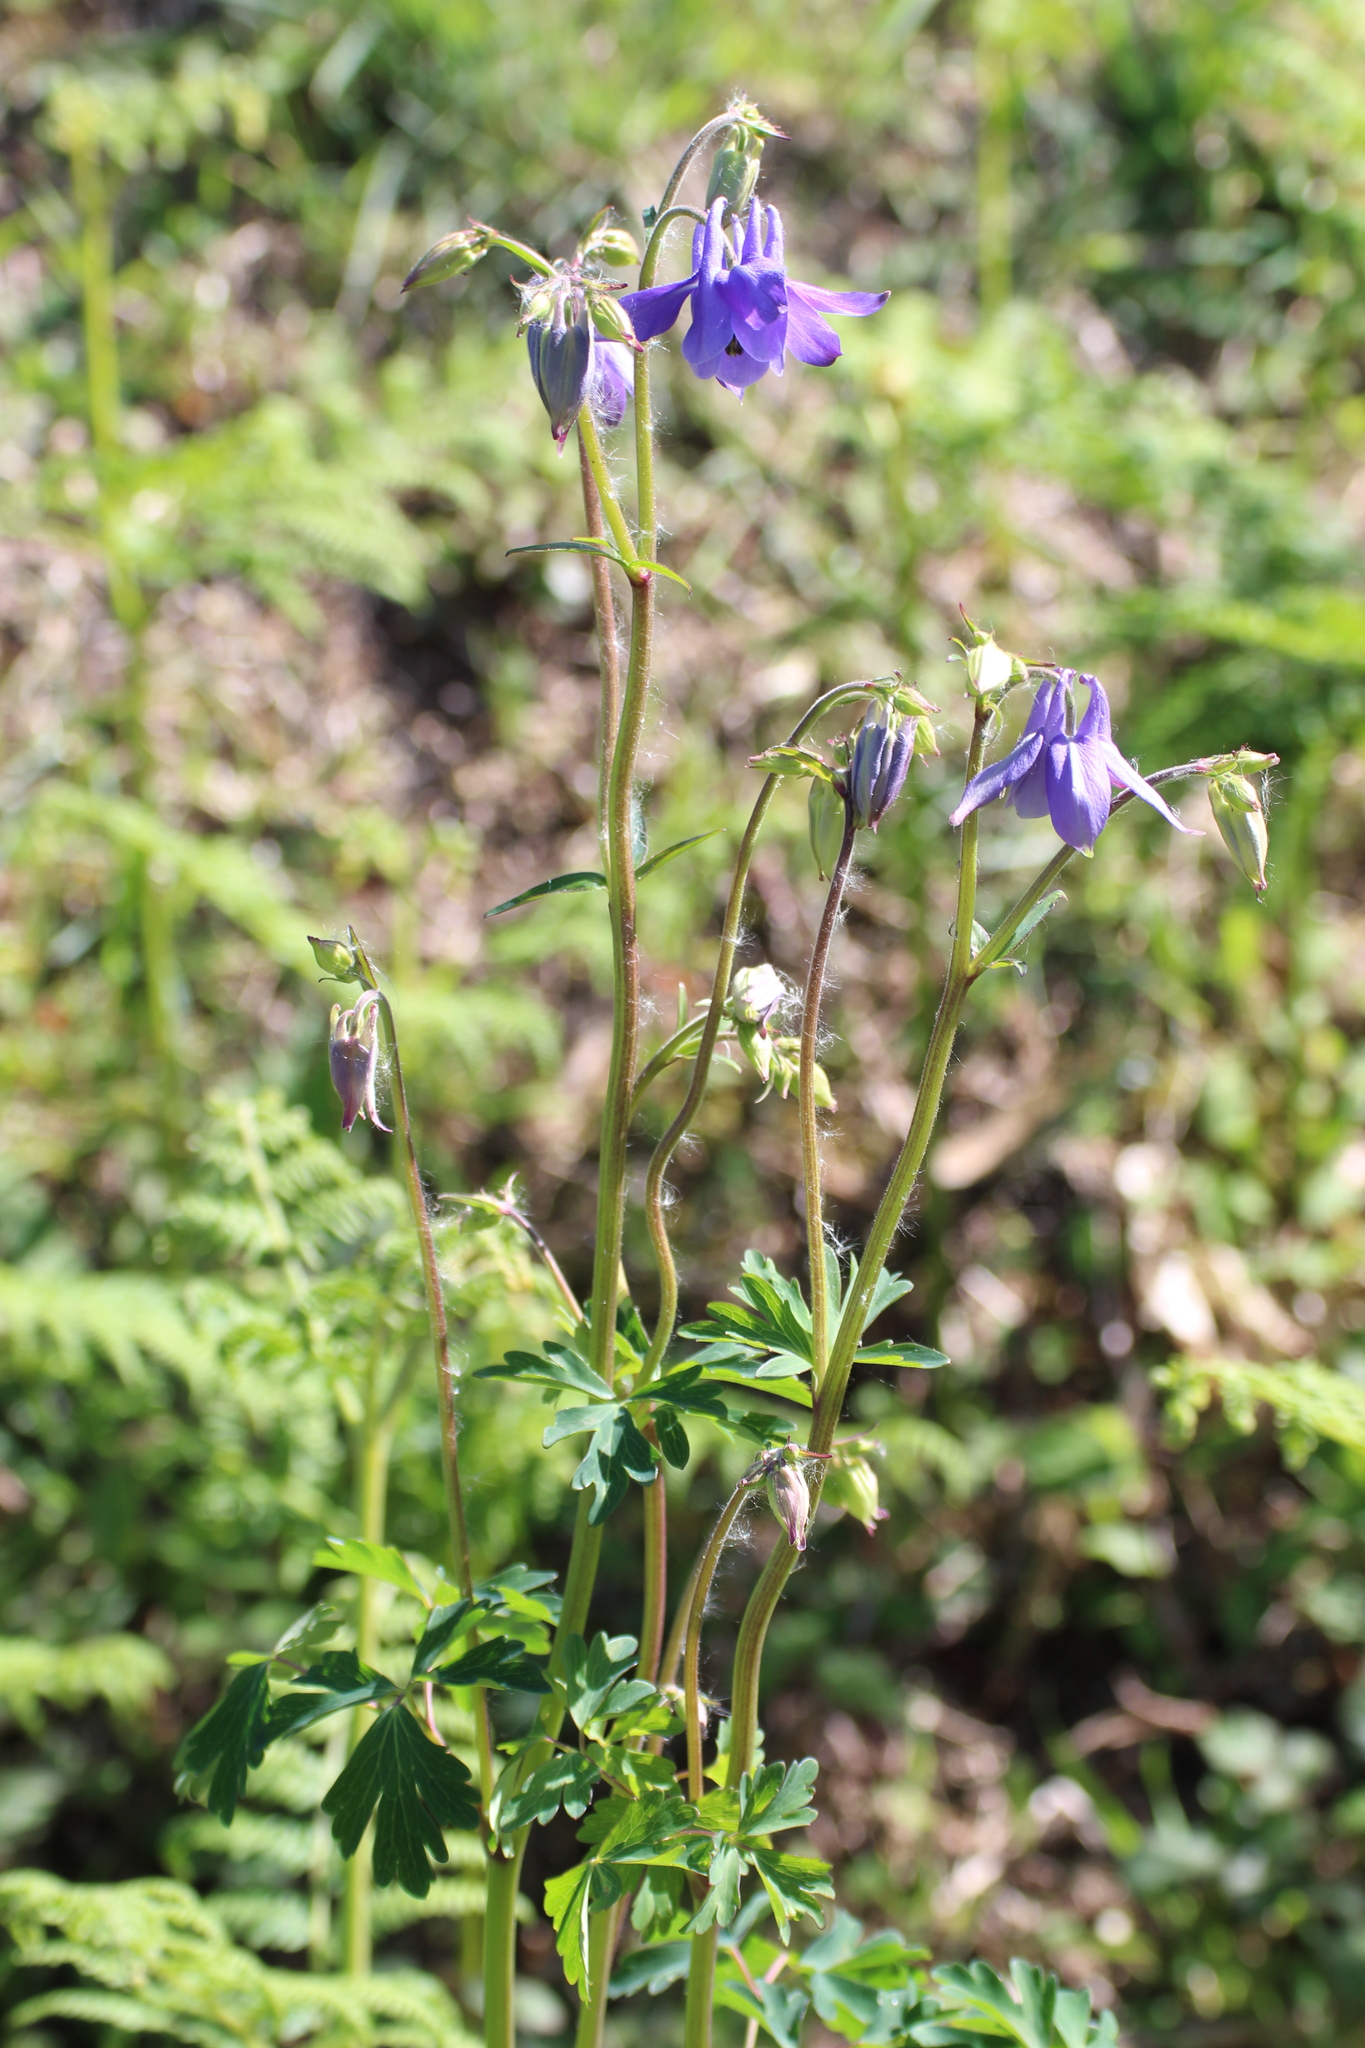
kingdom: Plantae
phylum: Tracheophyta
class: Magnoliopsida
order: Ranunculales
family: Ranunculaceae
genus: Aquilegia
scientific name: Aquilegia vulgaris
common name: Columbine
